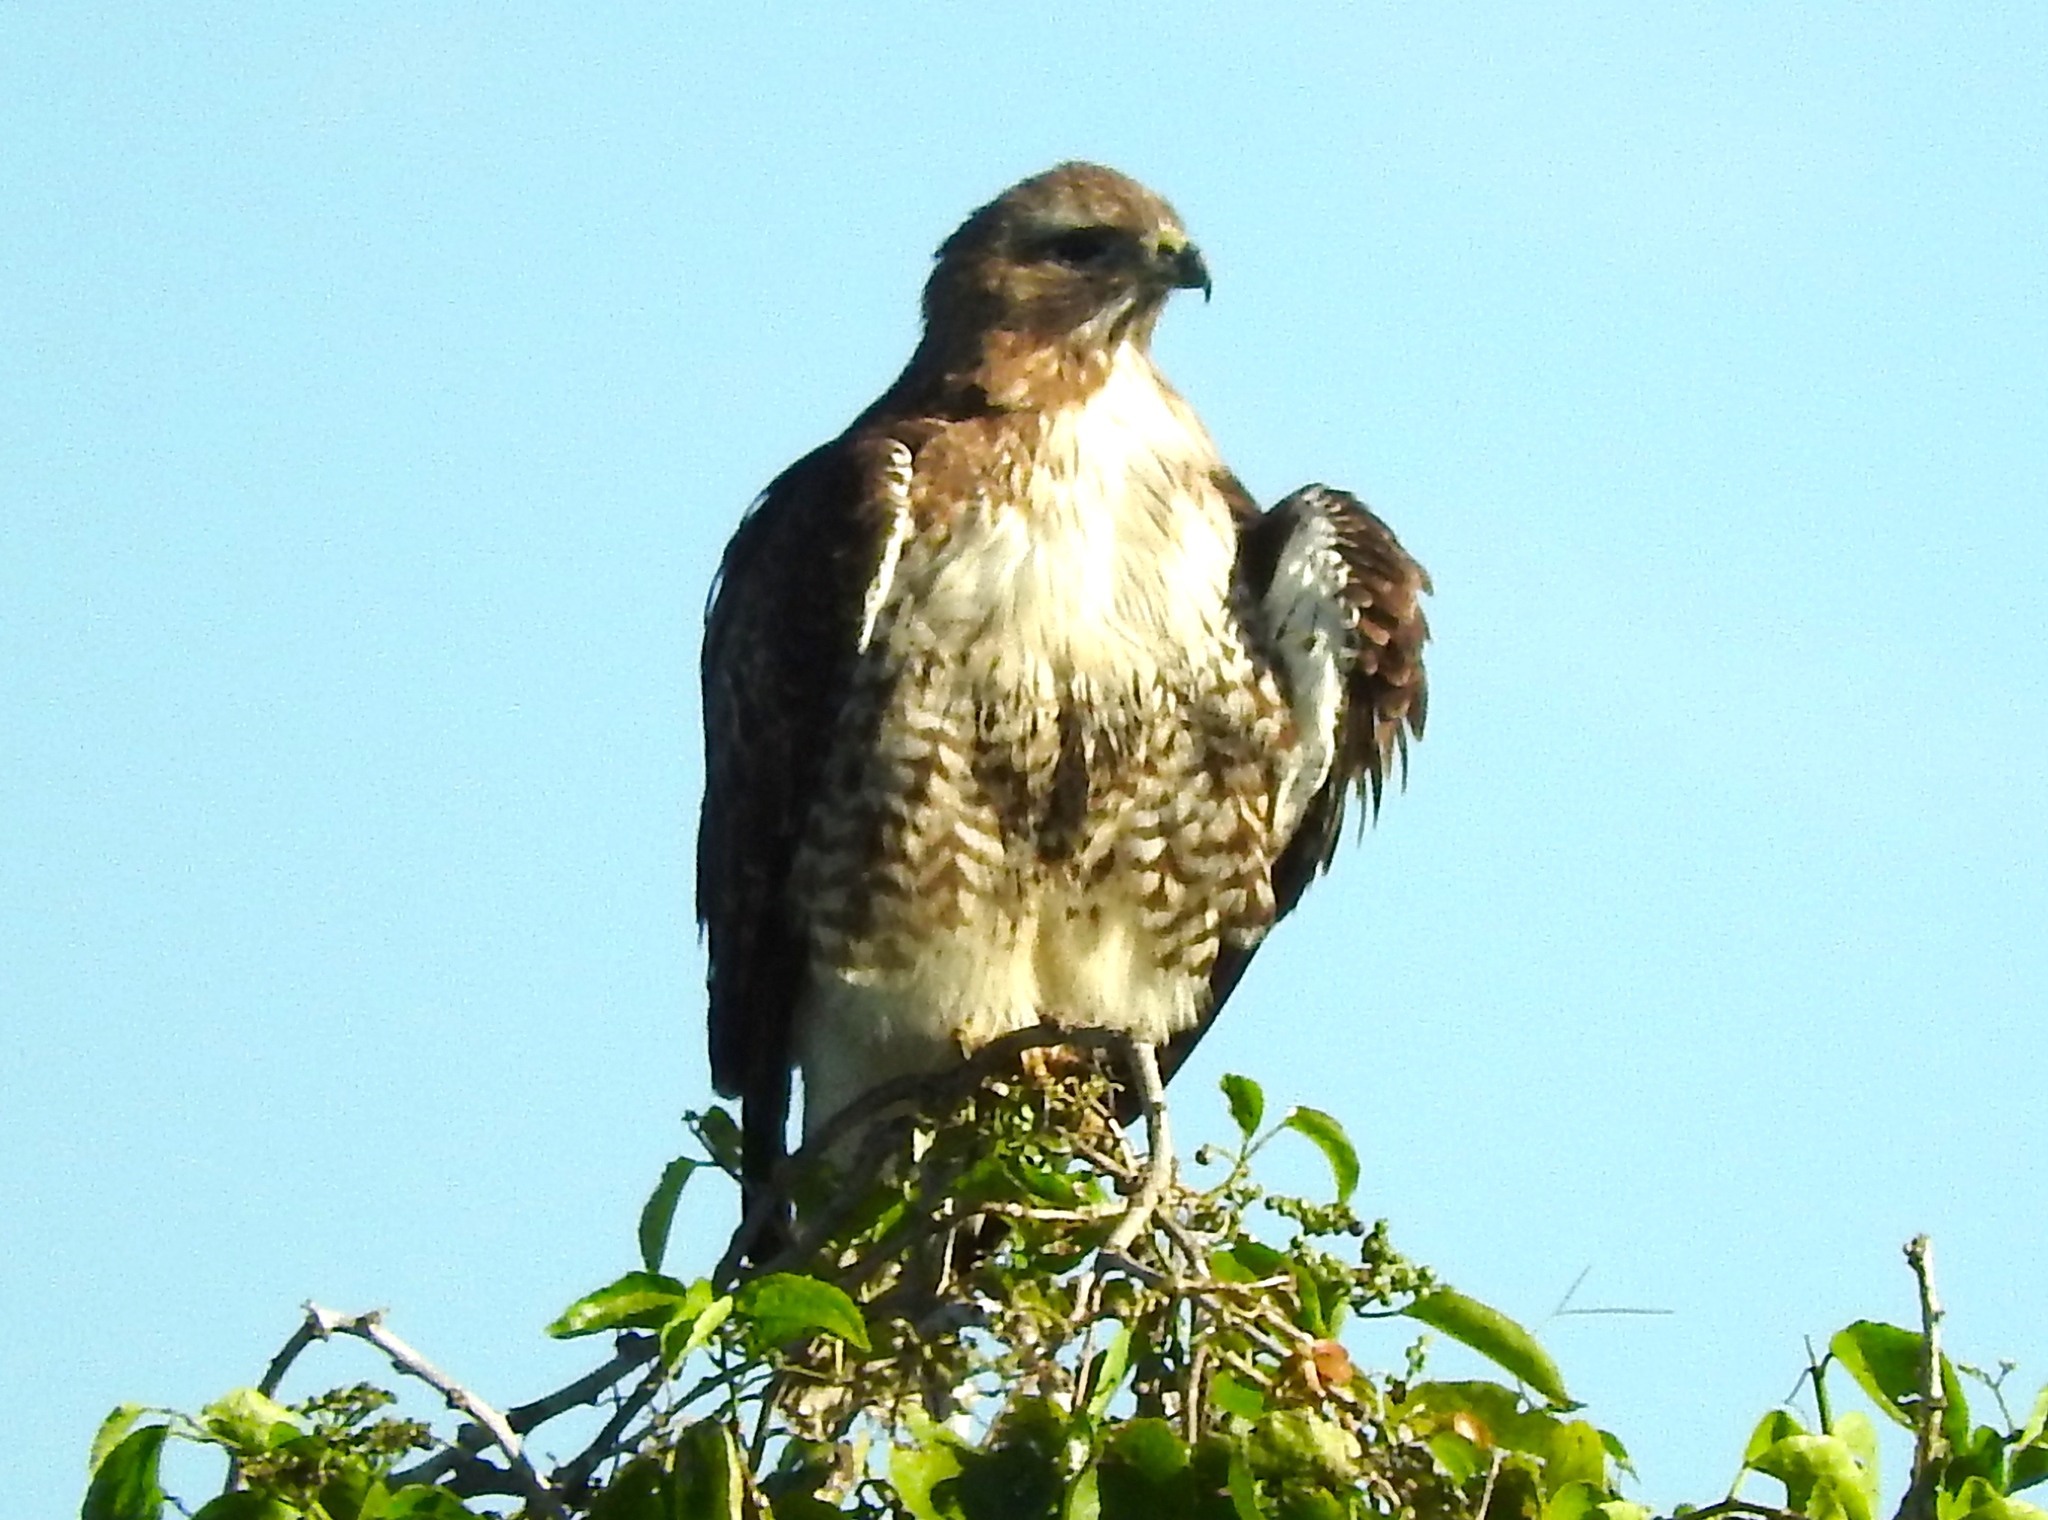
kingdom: Animalia
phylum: Chordata
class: Aves
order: Accipitriformes
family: Accipitridae
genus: Buteo
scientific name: Buteo jamaicensis
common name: Red-tailed hawk
